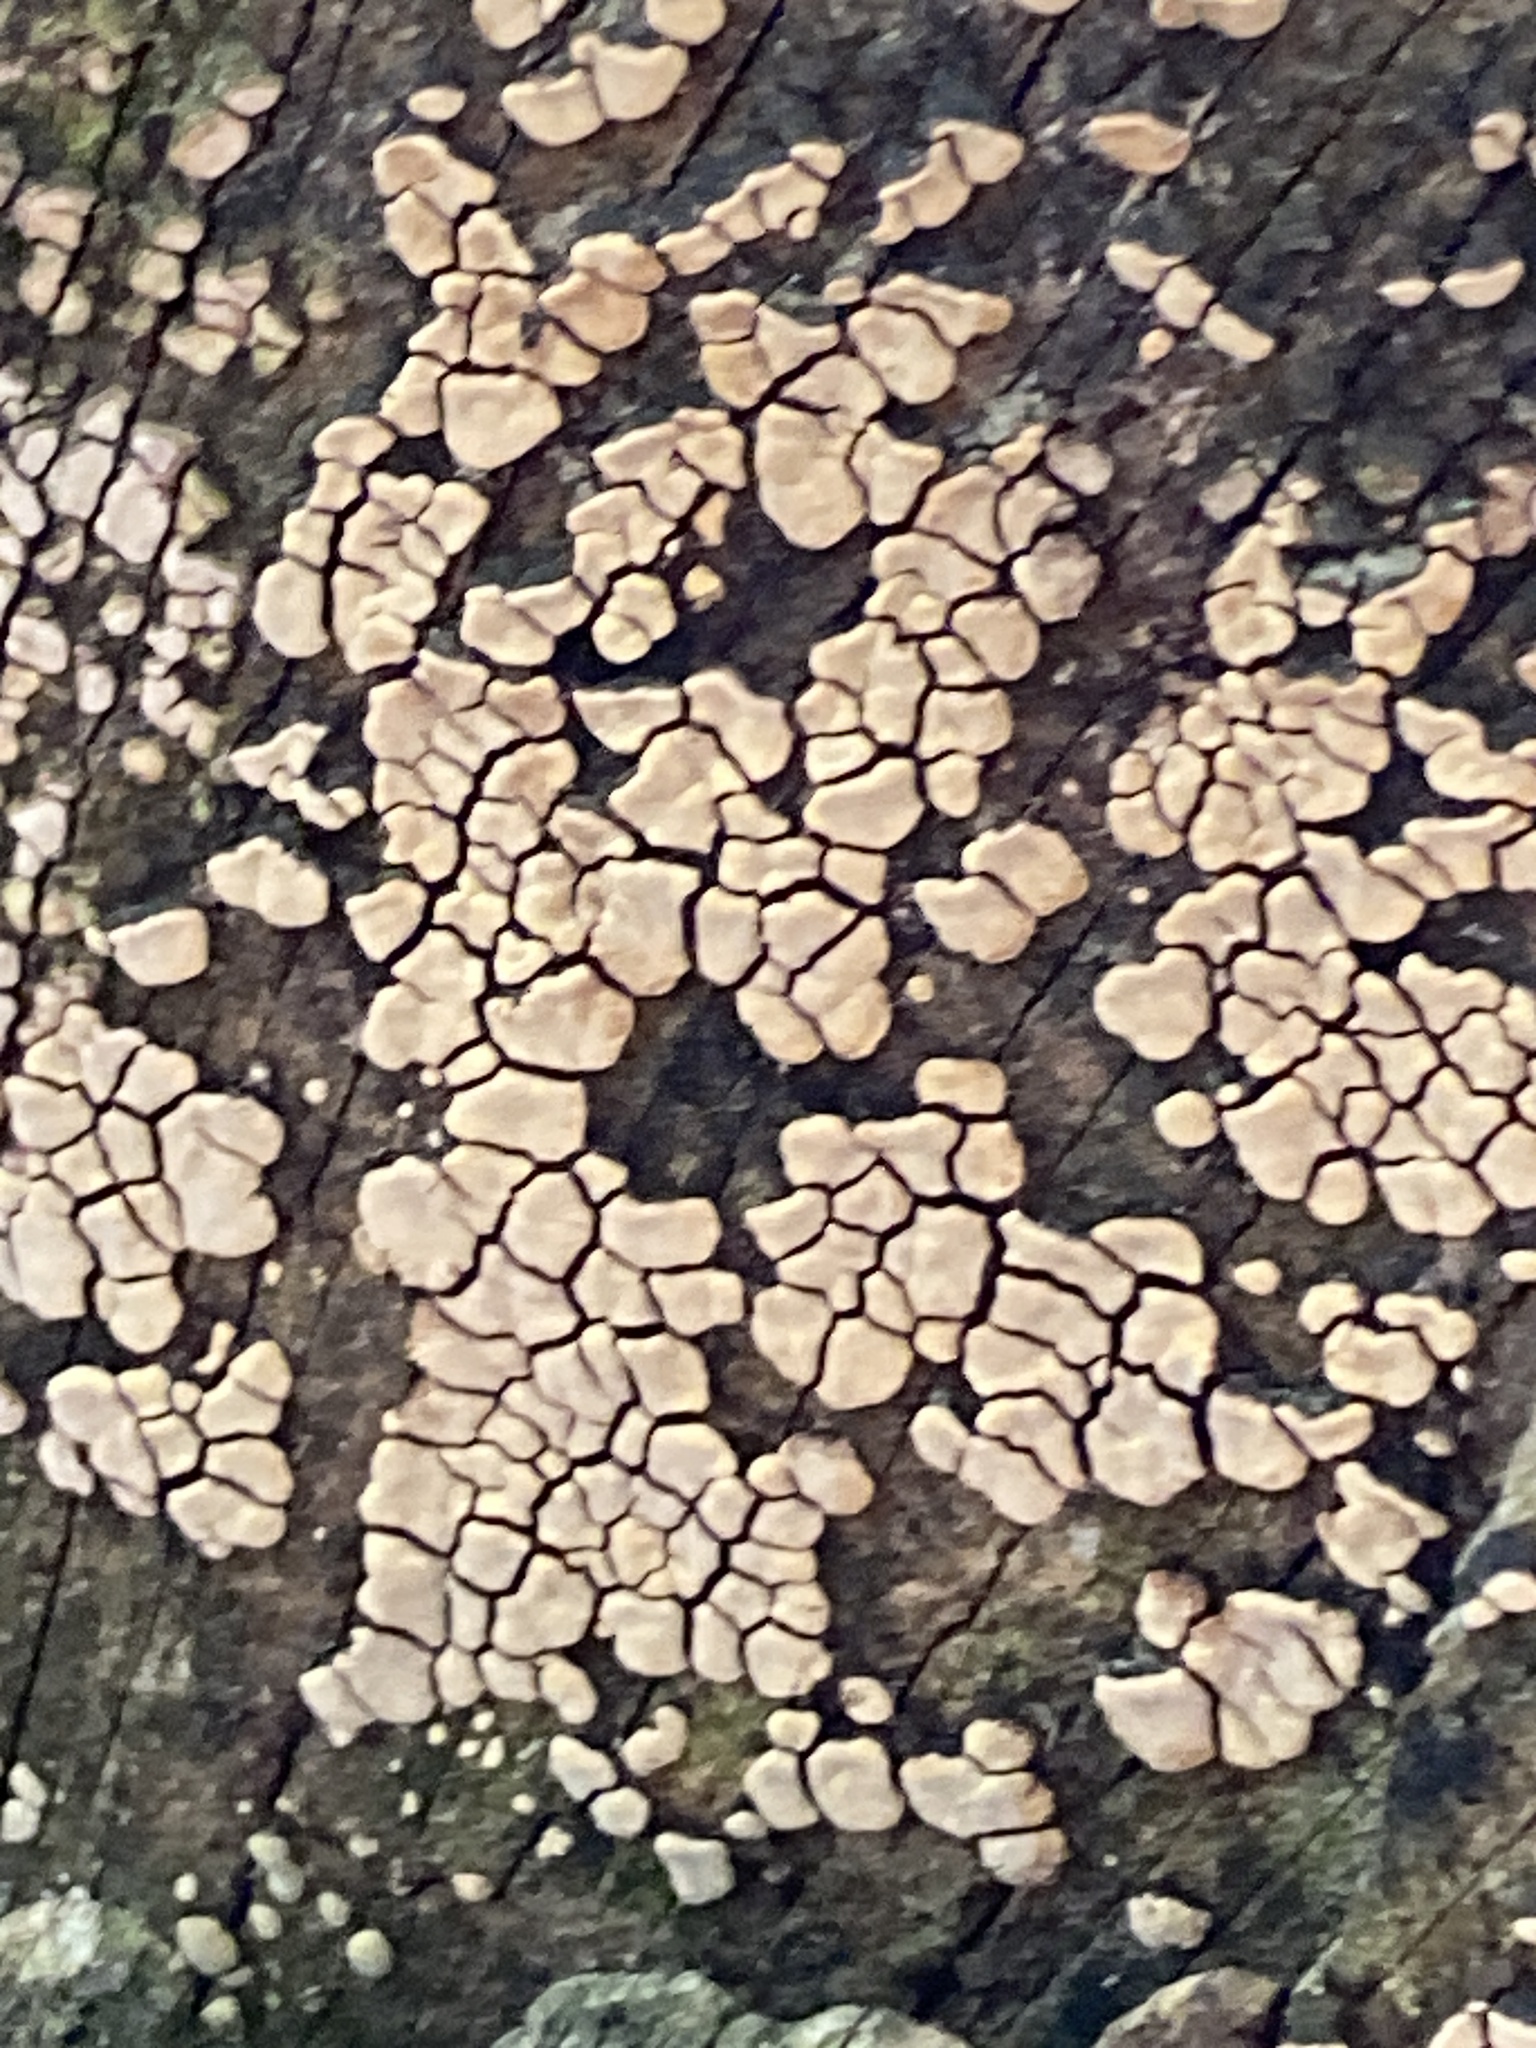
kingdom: Fungi
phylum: Basidiomycota
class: Agaricomycetes
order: Russulales
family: Stereaceae
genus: Xylobolus
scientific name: Xylobolus frustulatus
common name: Ceramic parchment
